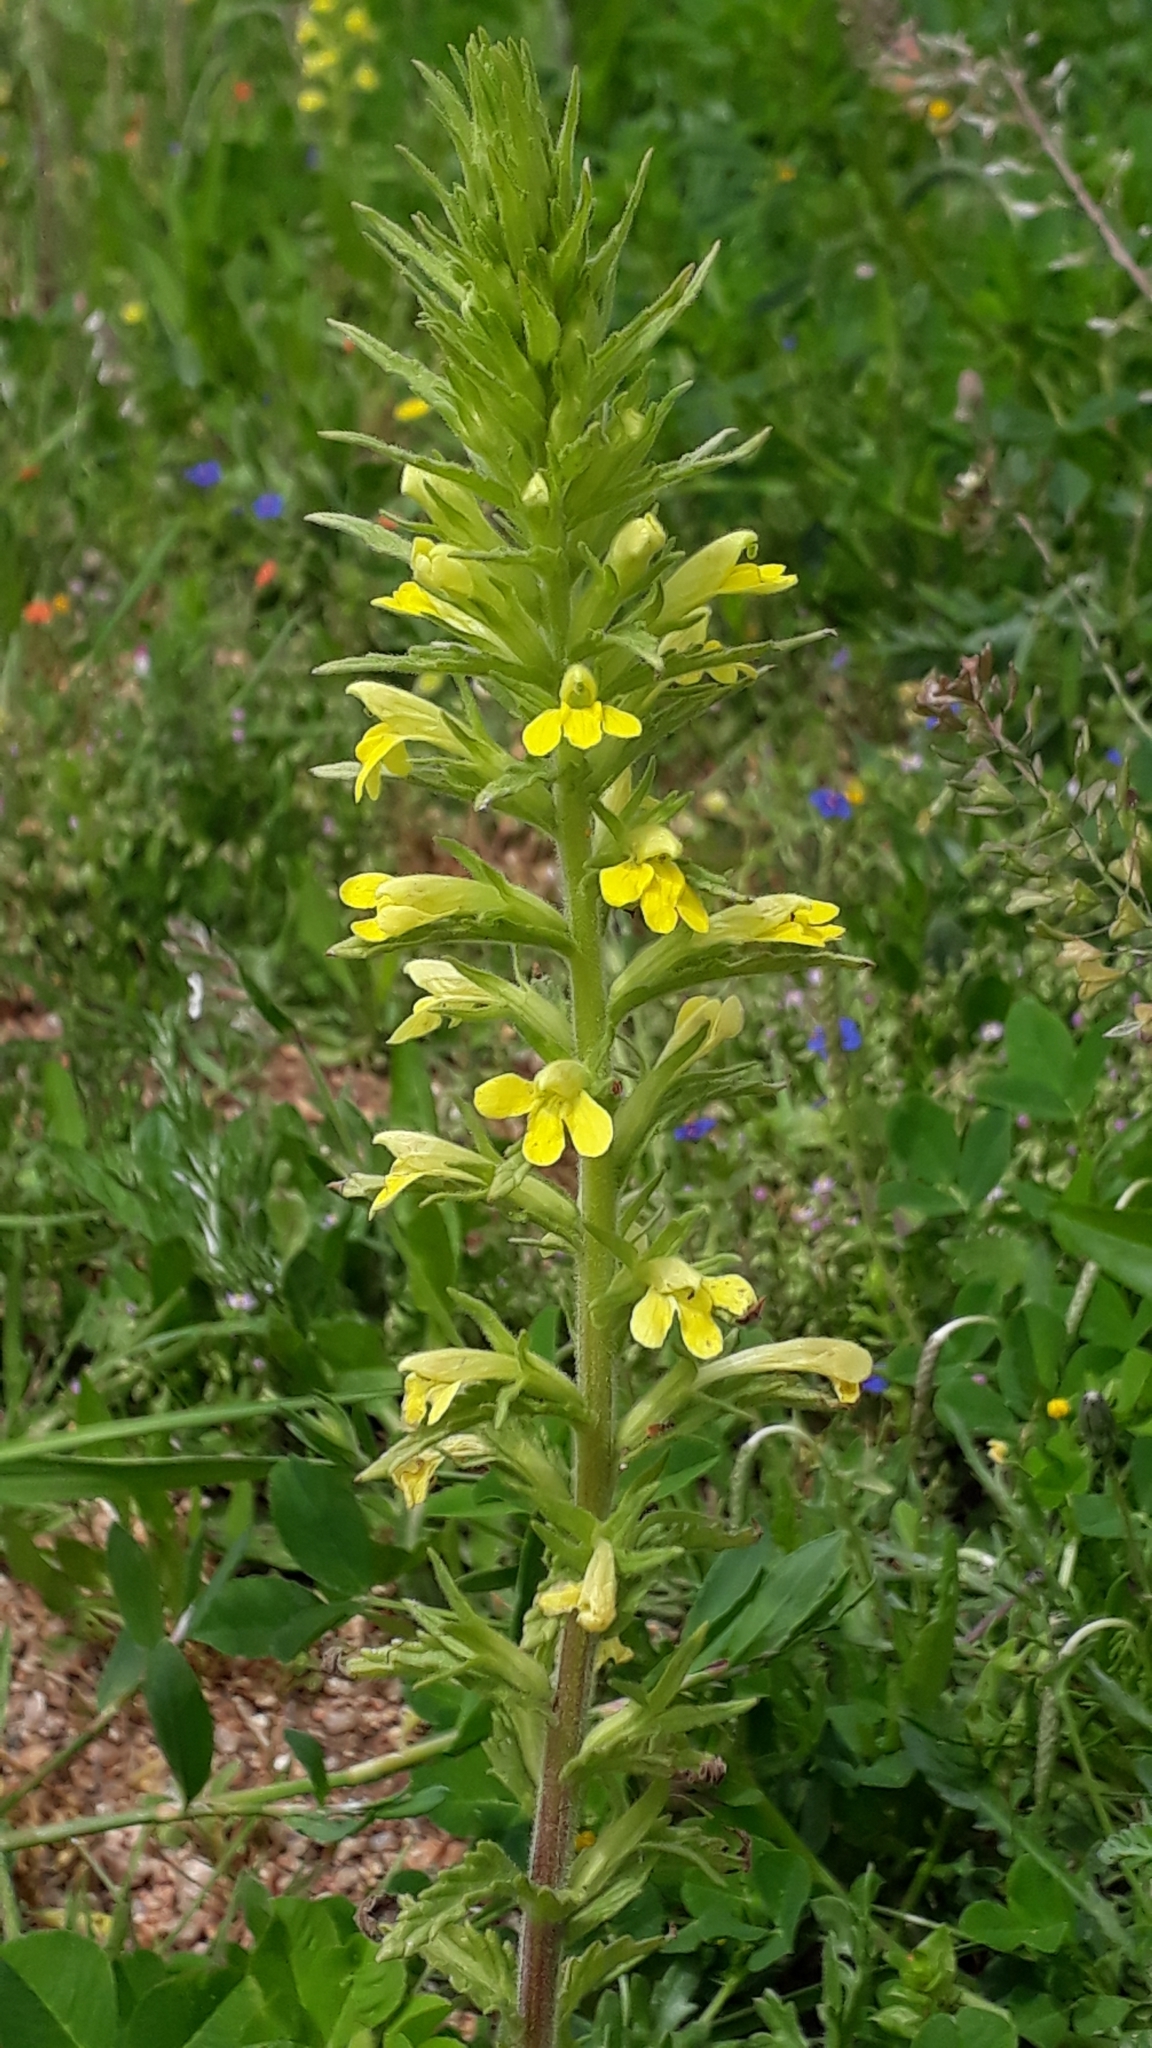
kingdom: Plantae
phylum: Tracheophyta
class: Magnoliopsida
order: Lamiales
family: Orobanchaceae
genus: Bellardia
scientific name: Bellardia viscosa
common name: Sticky parentucellia
